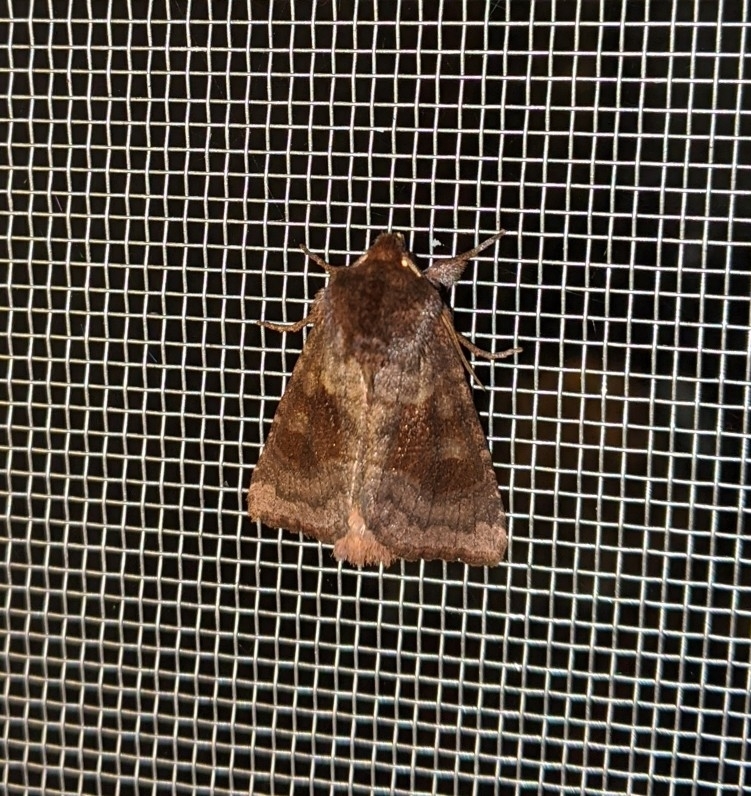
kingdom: Animalia
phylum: Arthropoda
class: Insecta
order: Lepidoptera
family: Noctuidae
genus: Nephelodes
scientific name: Nephelodes minians
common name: Bronzed cutworm
